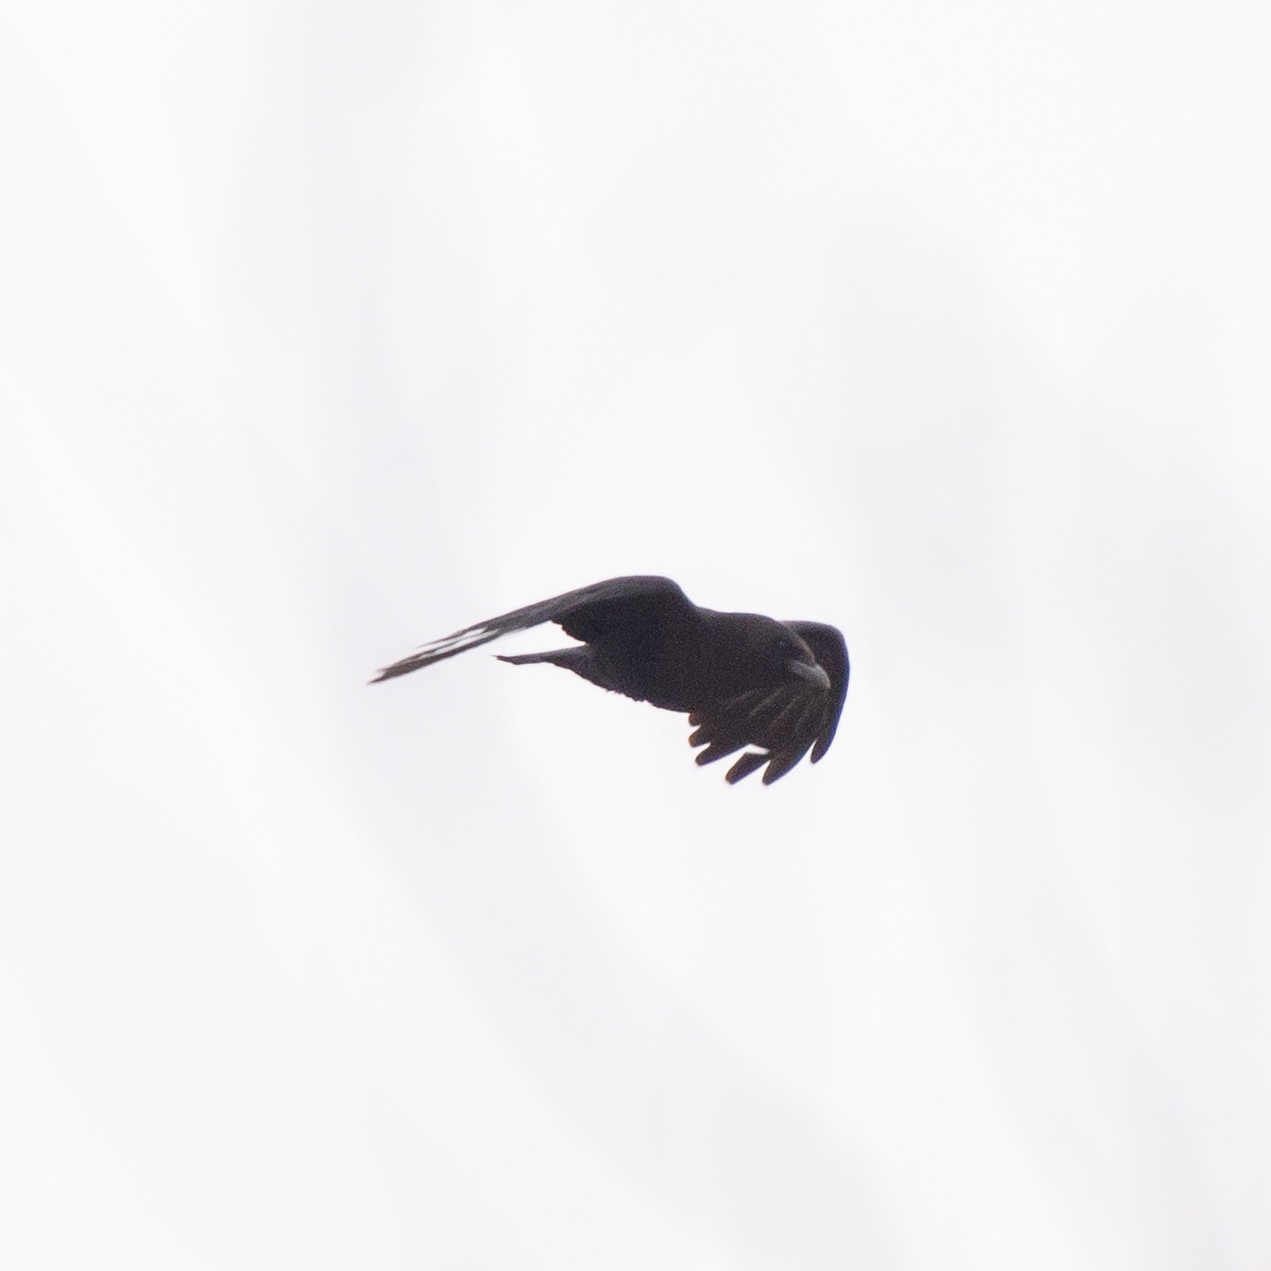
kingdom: Animalia
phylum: Chordata
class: Aves
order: Passeriformes
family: Corvidae
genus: Corvus
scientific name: Corvus corone
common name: Carrion crow
